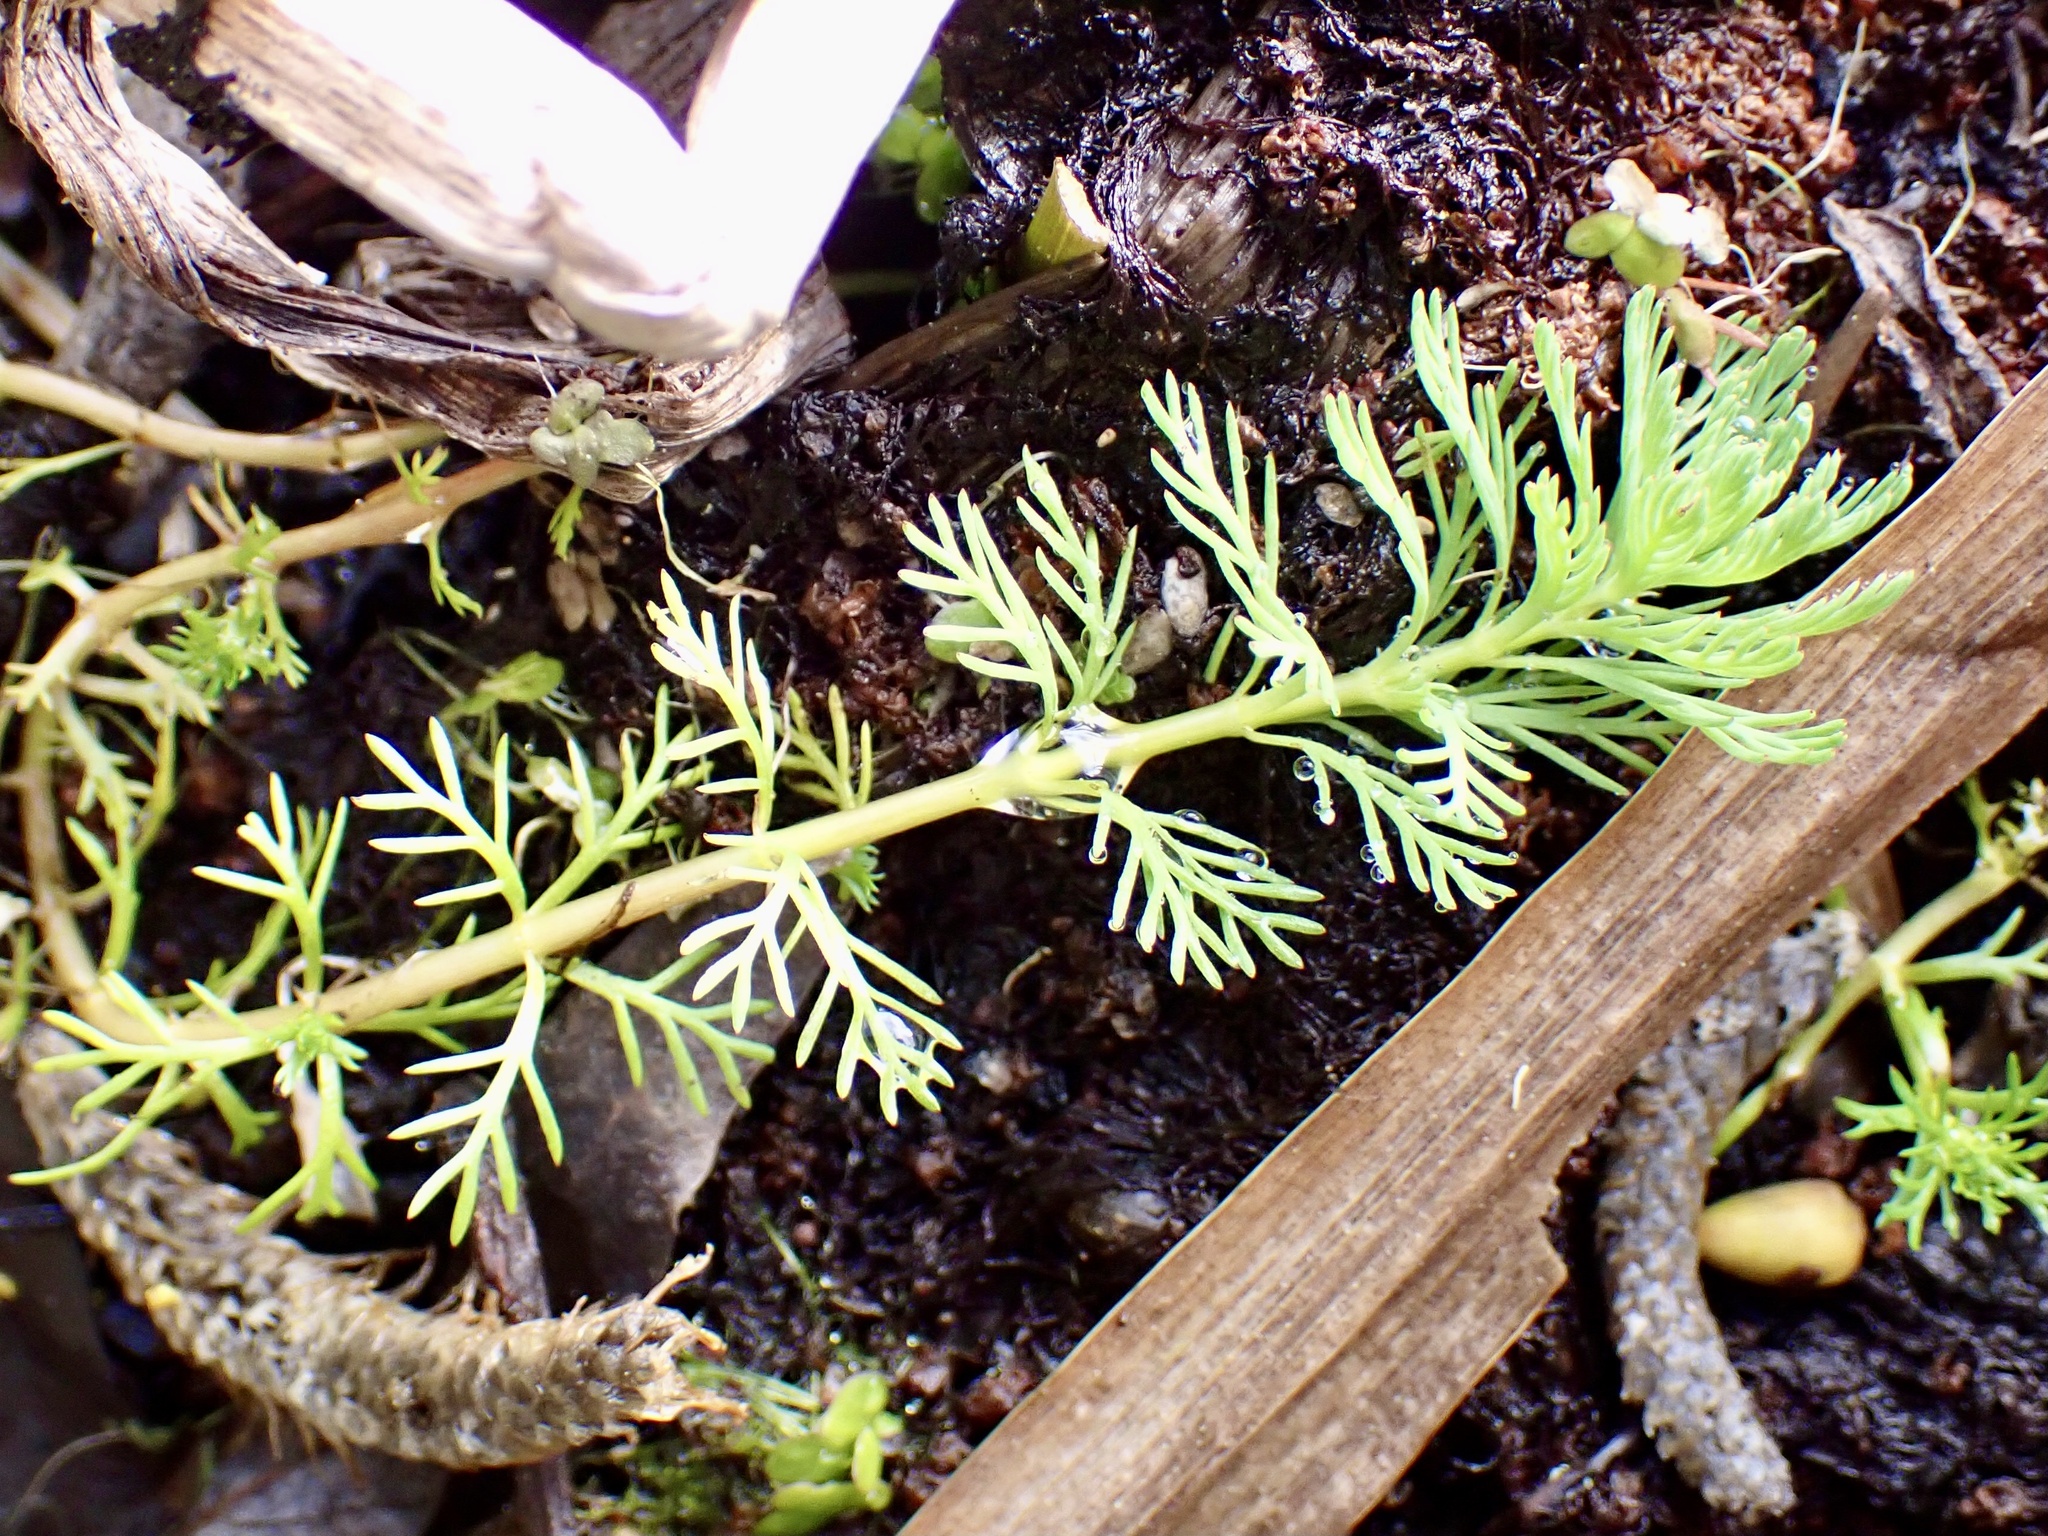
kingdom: Plantae
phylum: Tracheophyta
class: Magnoliopsida
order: Saxifragales
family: Haloragaceae
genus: Myriophyllum
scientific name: Myriophyllum aquaticum
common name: Parrot's feather
